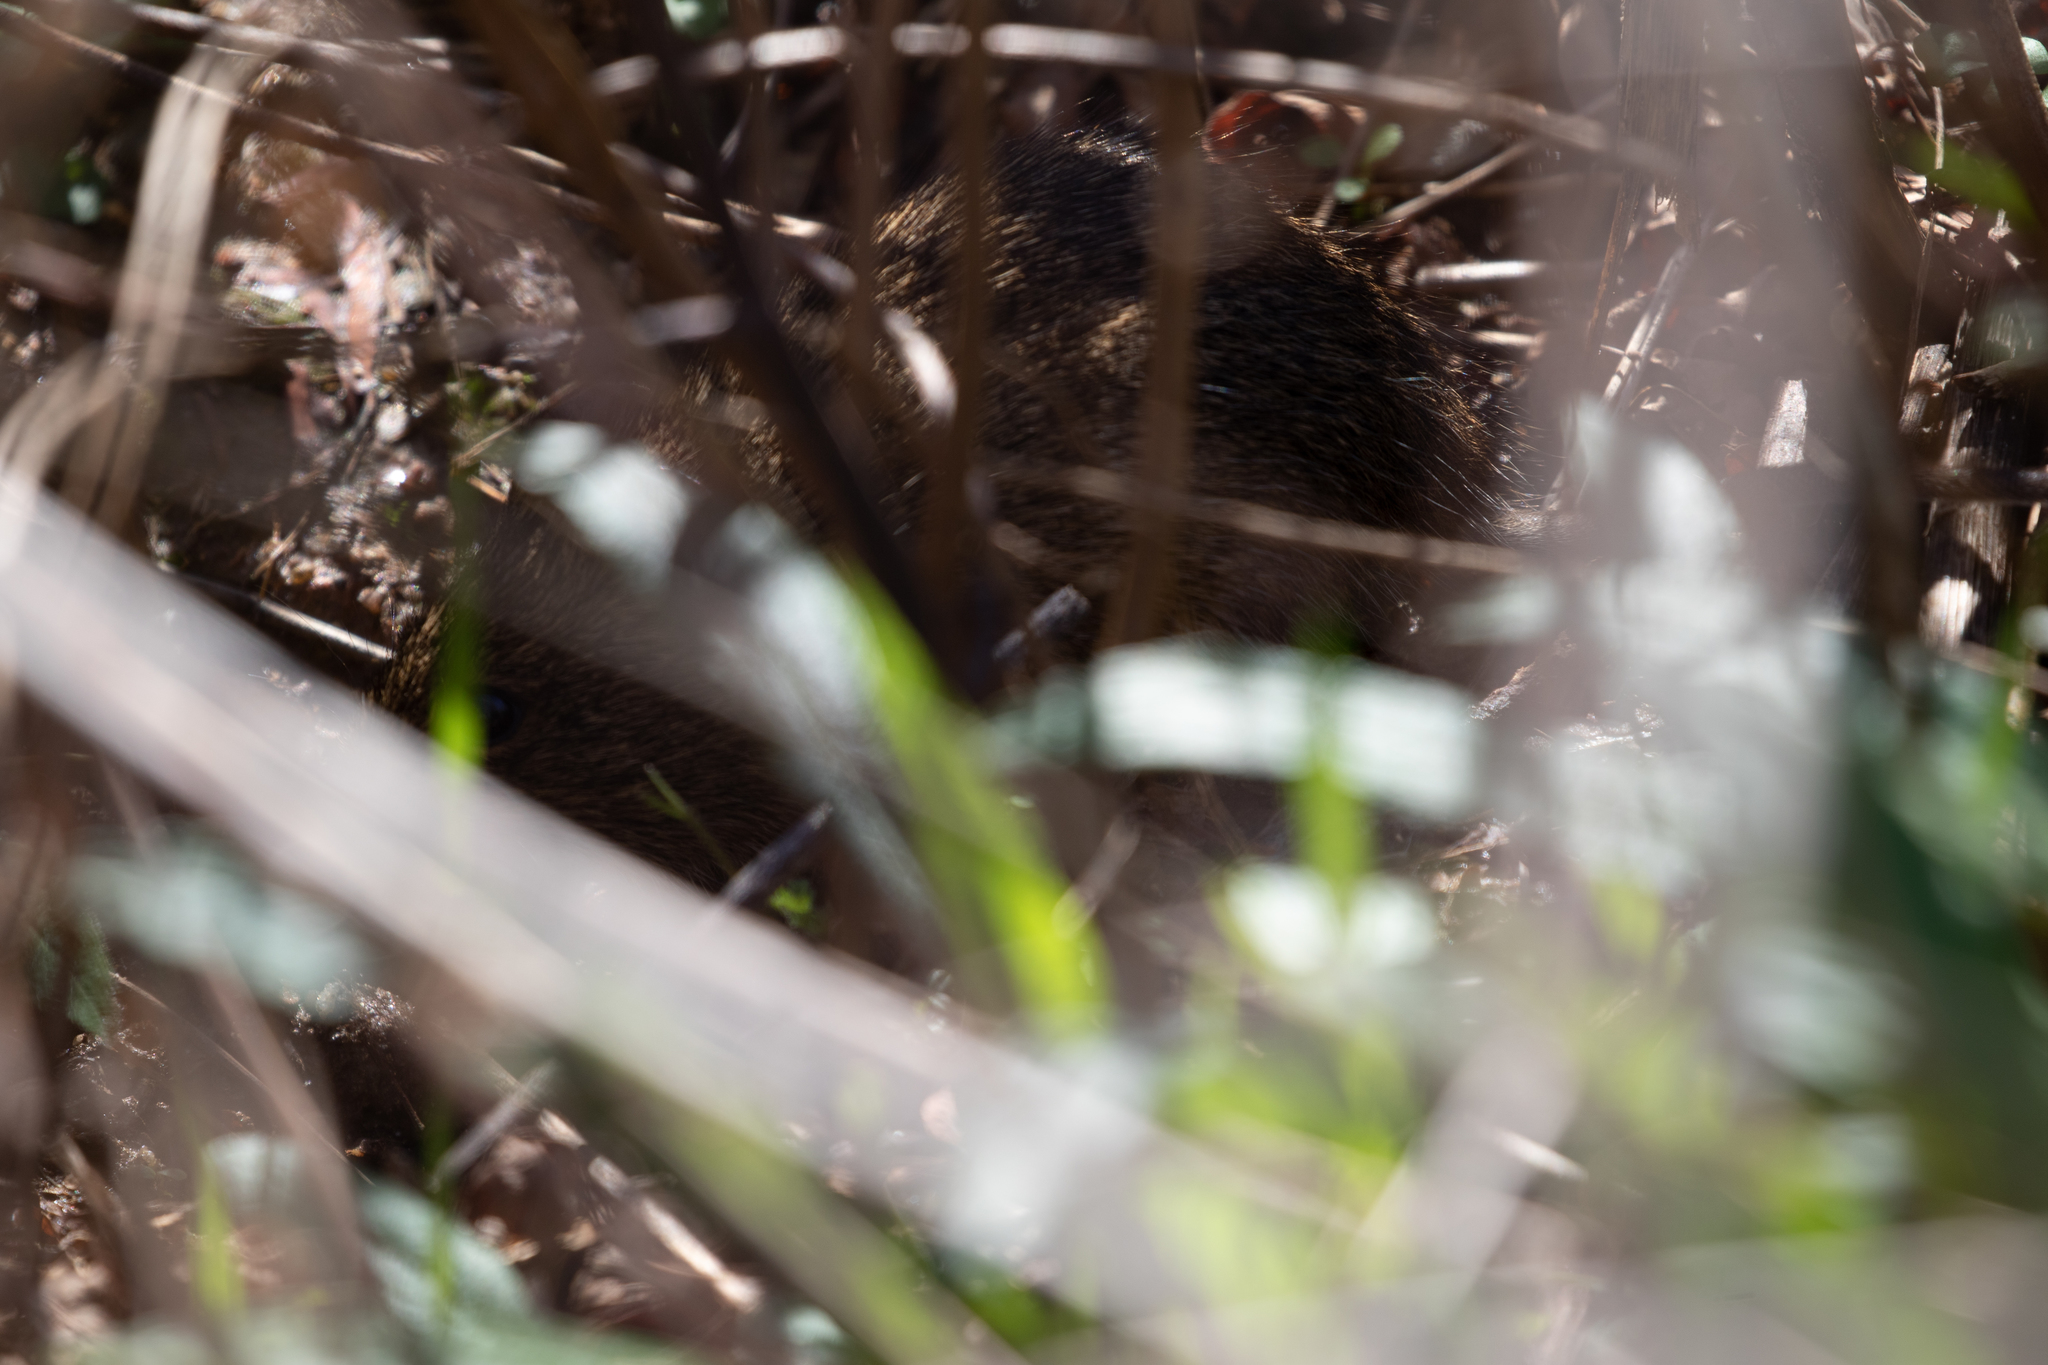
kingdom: Animalia
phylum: Chordata
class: Mammalia
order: Rodentia
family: Cricetidae
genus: Sigmodon
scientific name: Sigmodon hispidus
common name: Hispid cotton rat
